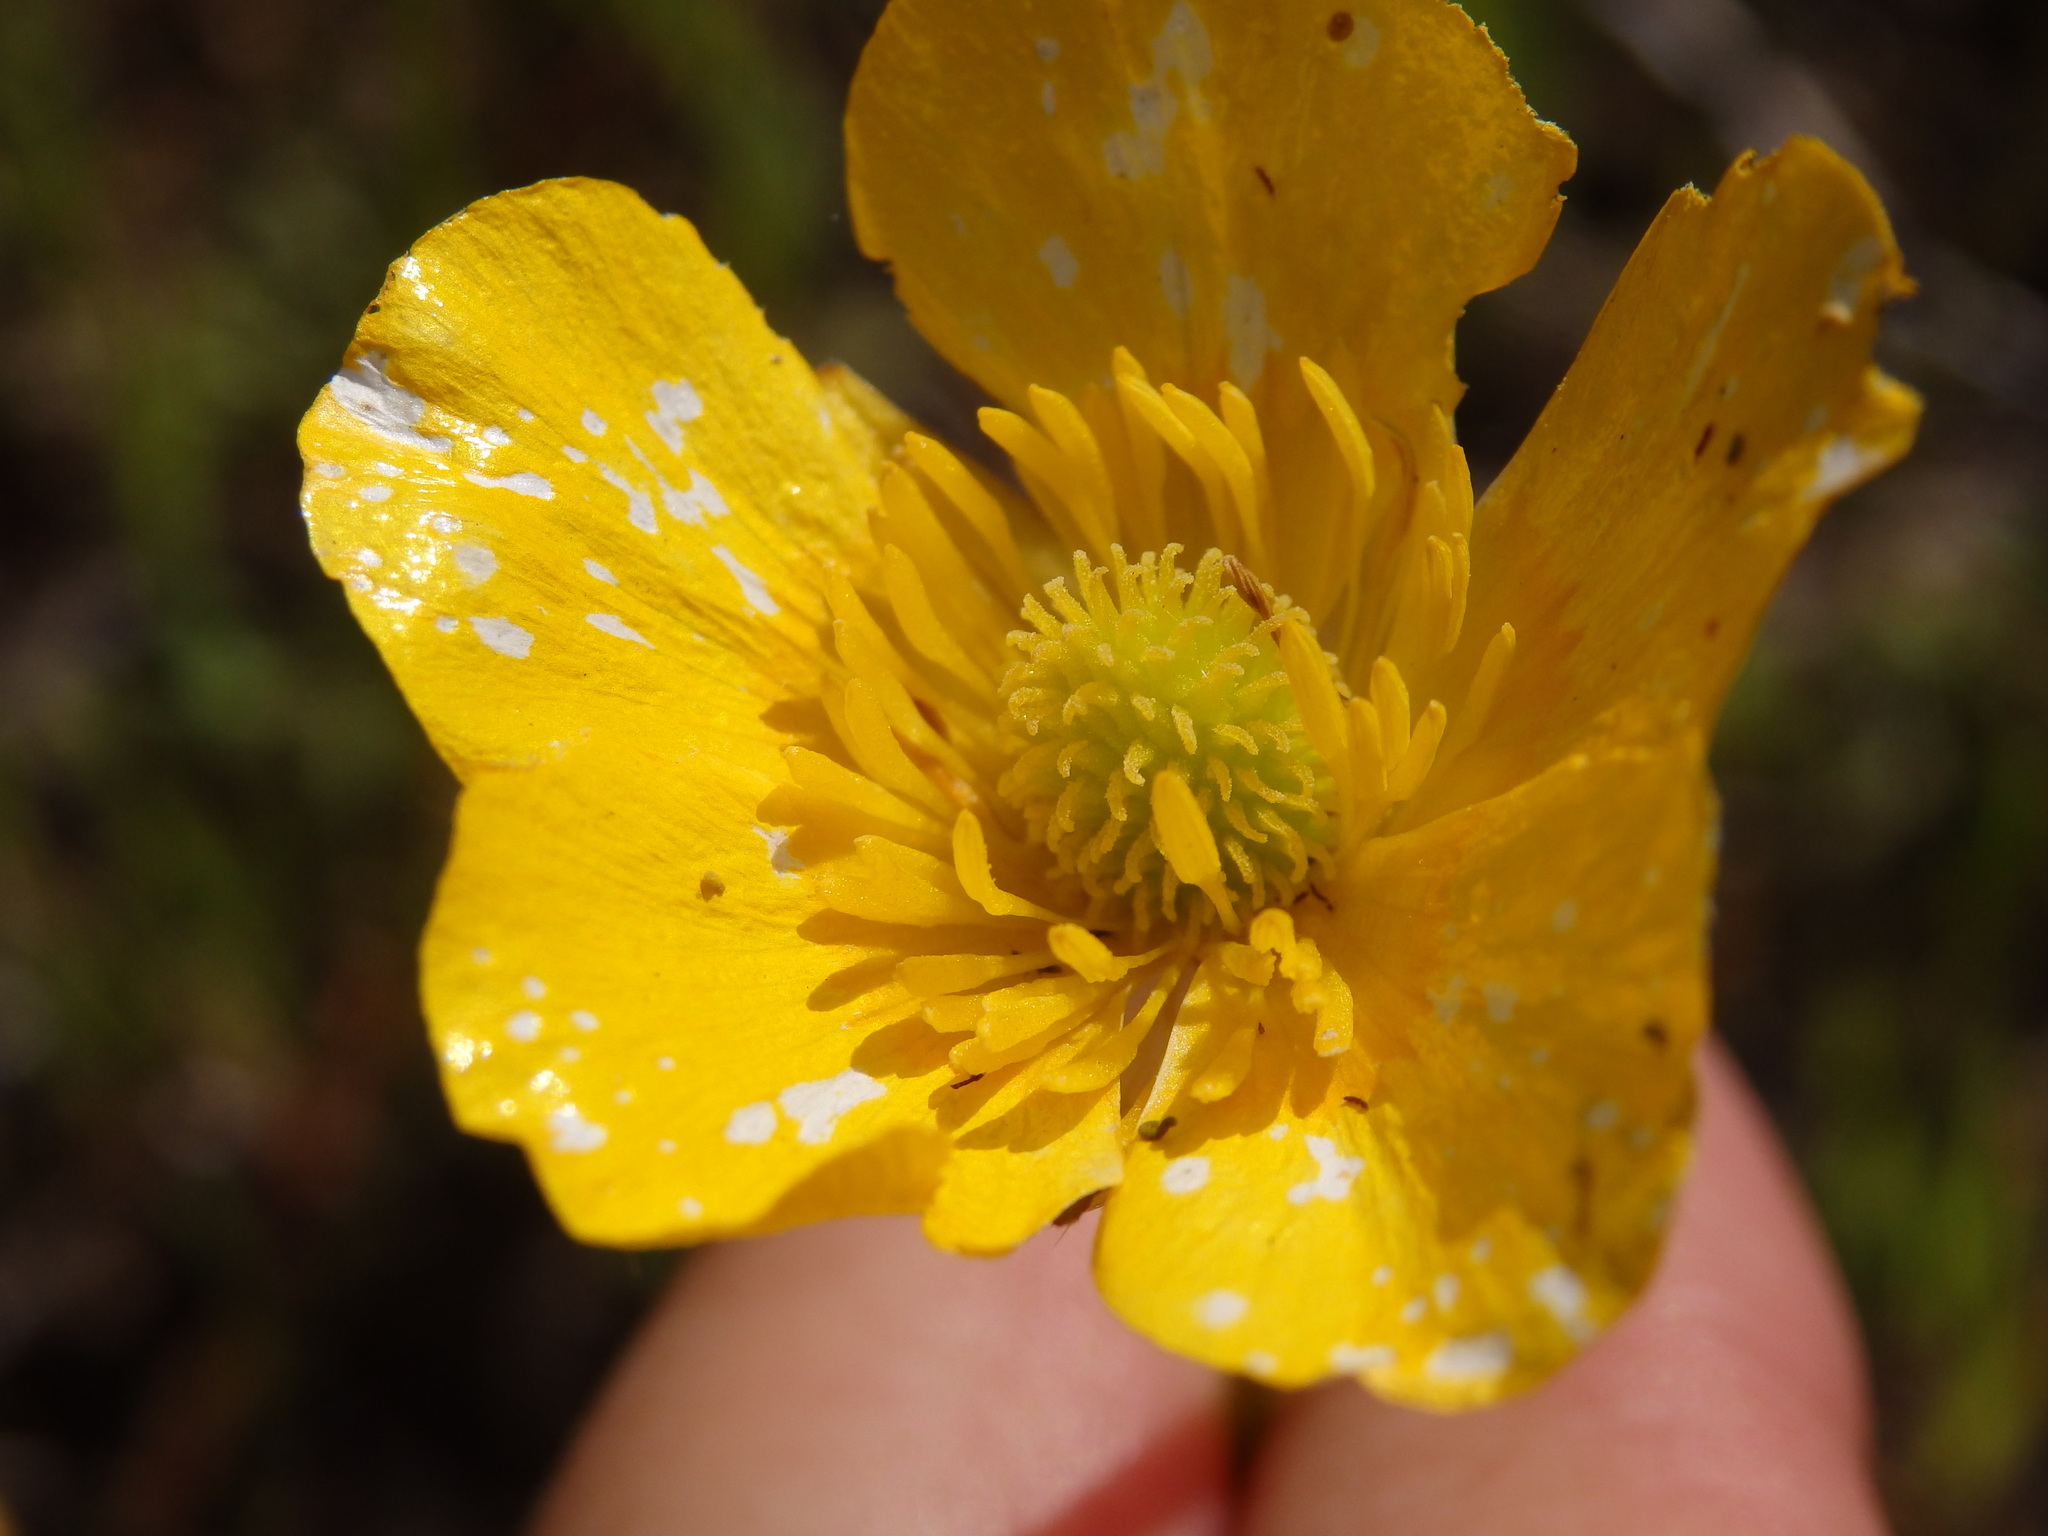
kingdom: Plantae
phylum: Tracheophyta
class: Magnoliopsida
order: Ranunculales
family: Ranunculaceae
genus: Ranunculus
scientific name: Ranunculus paludosus
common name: Jersey buttercup
